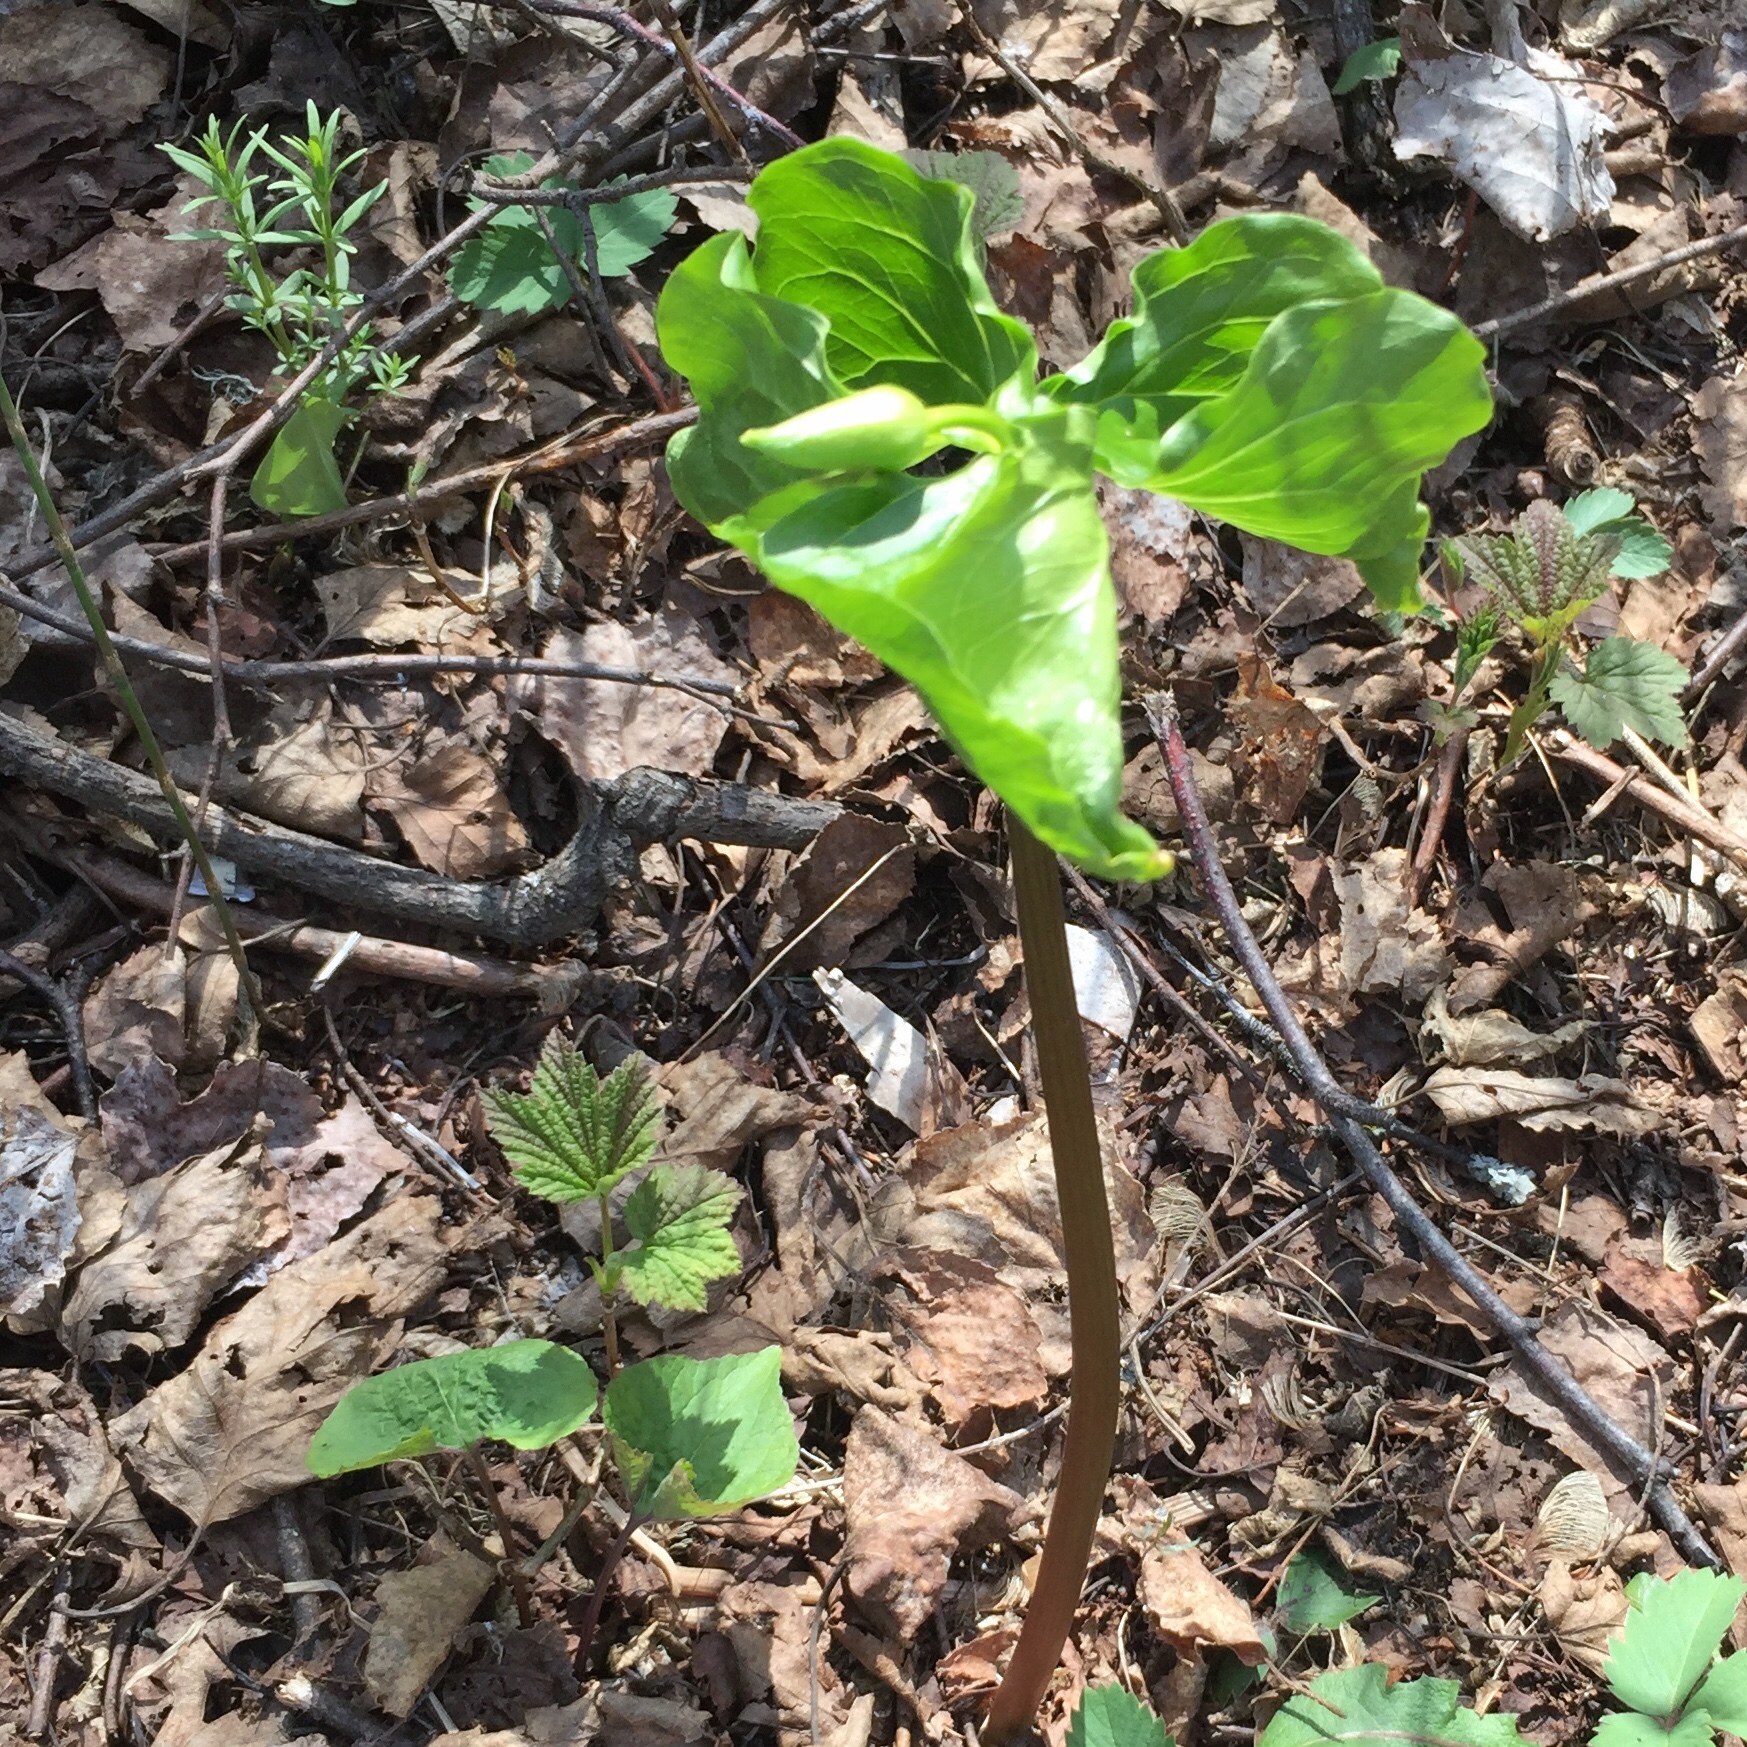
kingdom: Plantae
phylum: Tracheophyta
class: Liliopsida
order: Liliales
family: Melanthiaceae
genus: Trillium
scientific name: Trillium cernuum
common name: Nodding trillium
